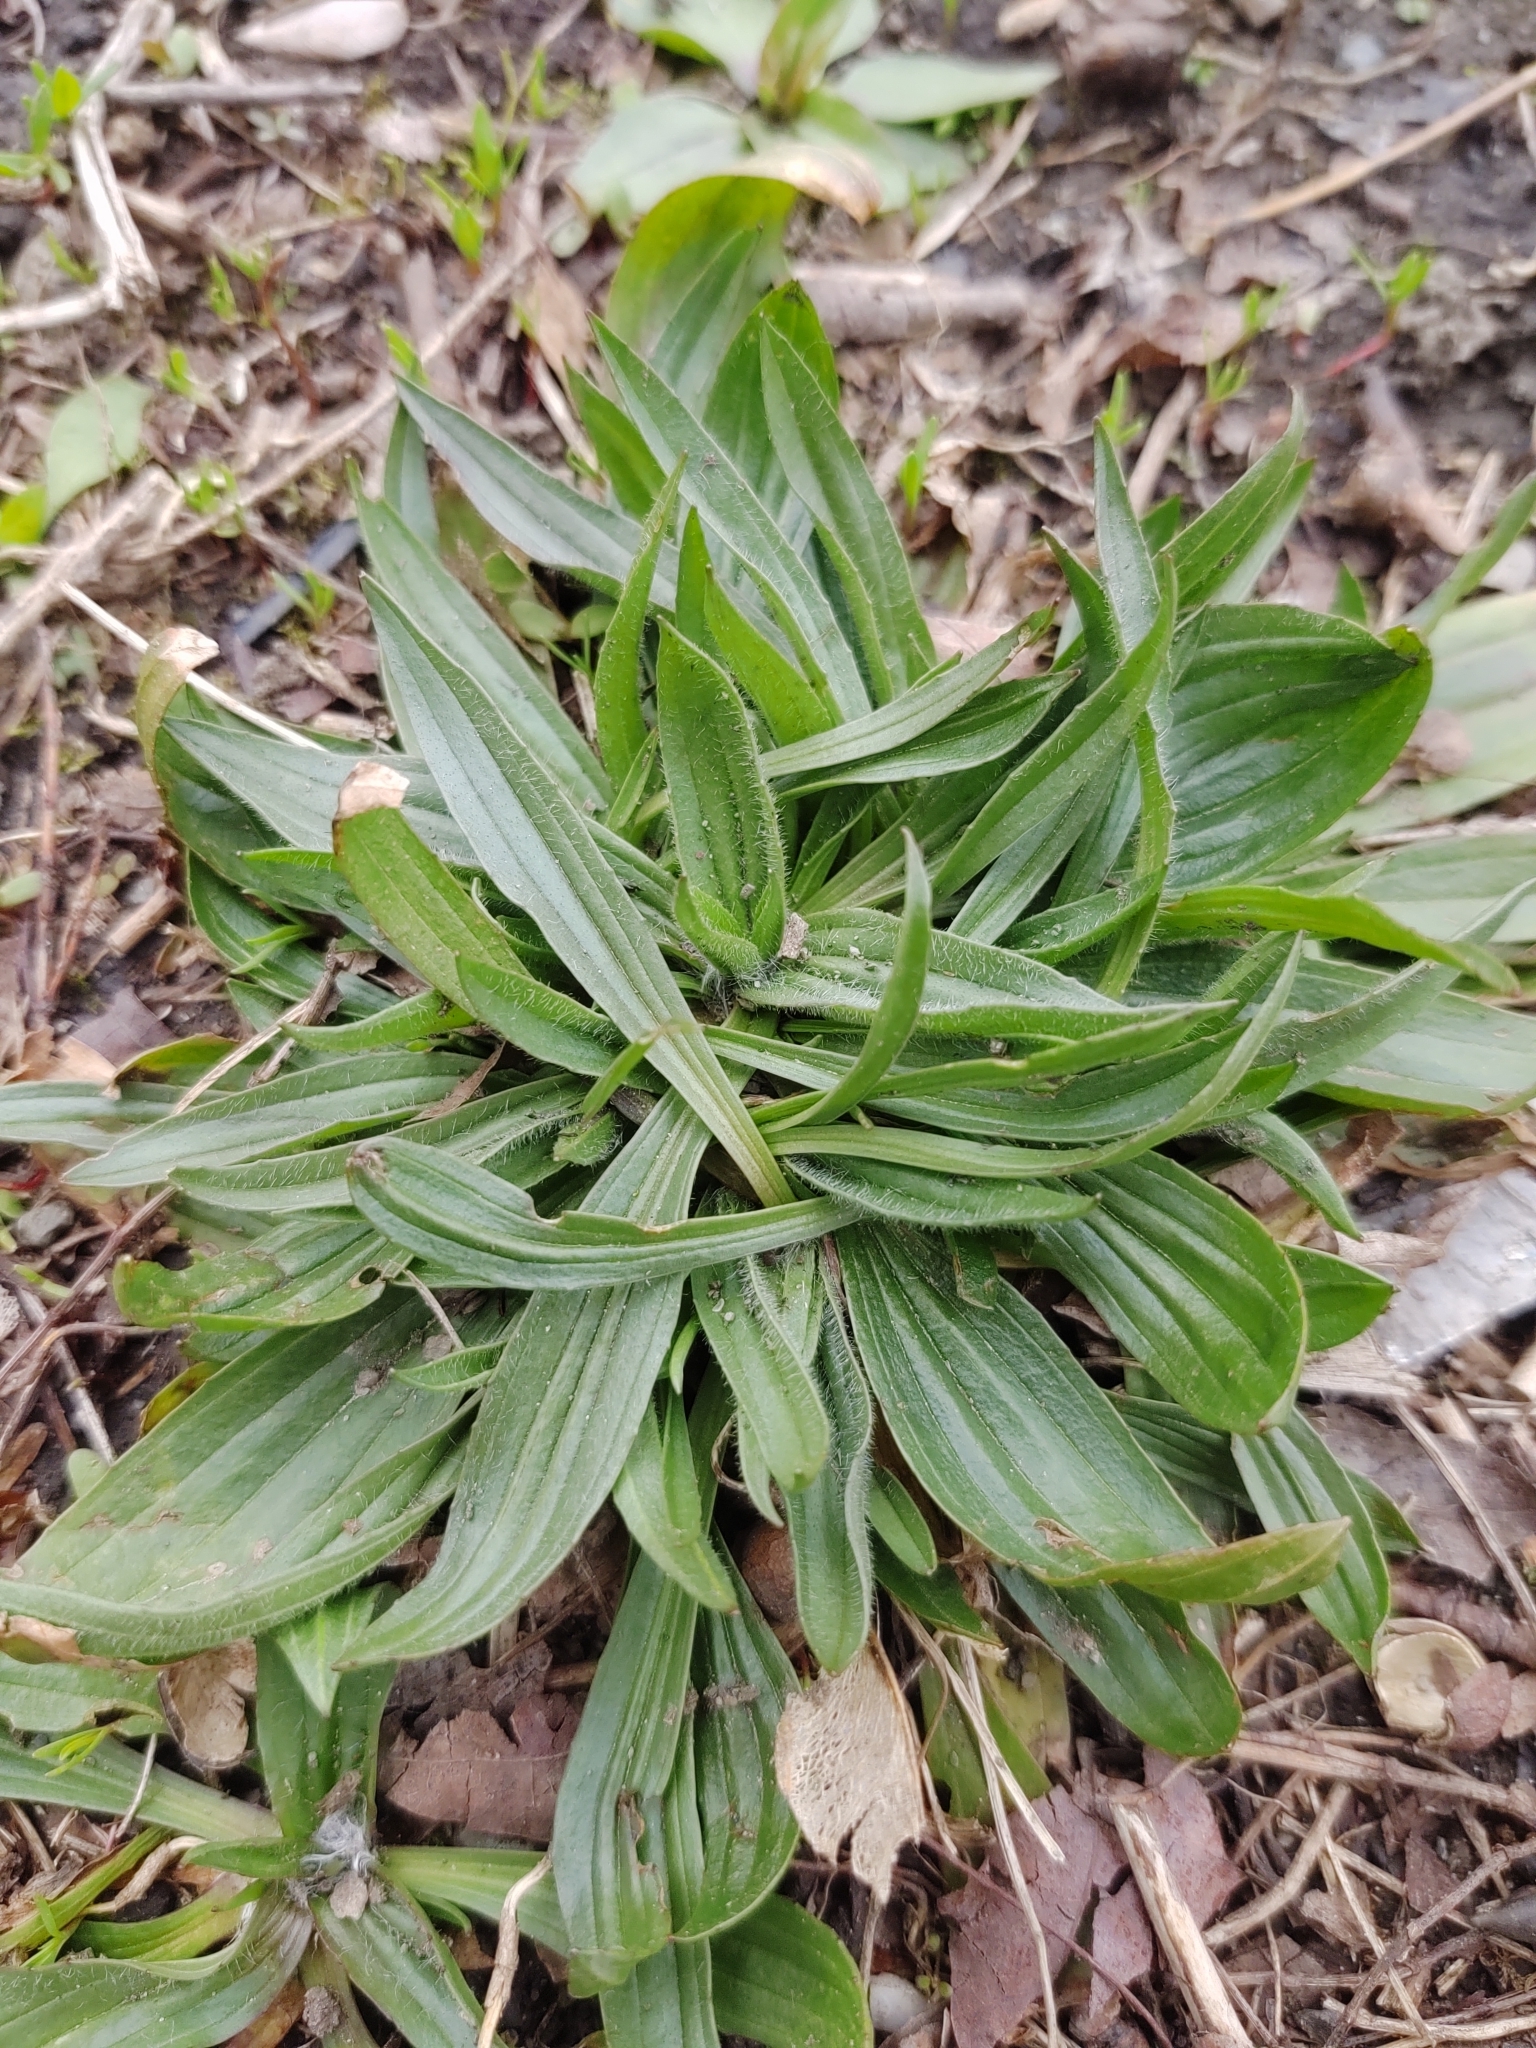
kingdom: Plantae
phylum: Tracheophyta
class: Magnoliopsida
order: Lamiales
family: Plantaginaceae
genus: Plantago
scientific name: Plantago lanceolata
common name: Ribwort plantain
